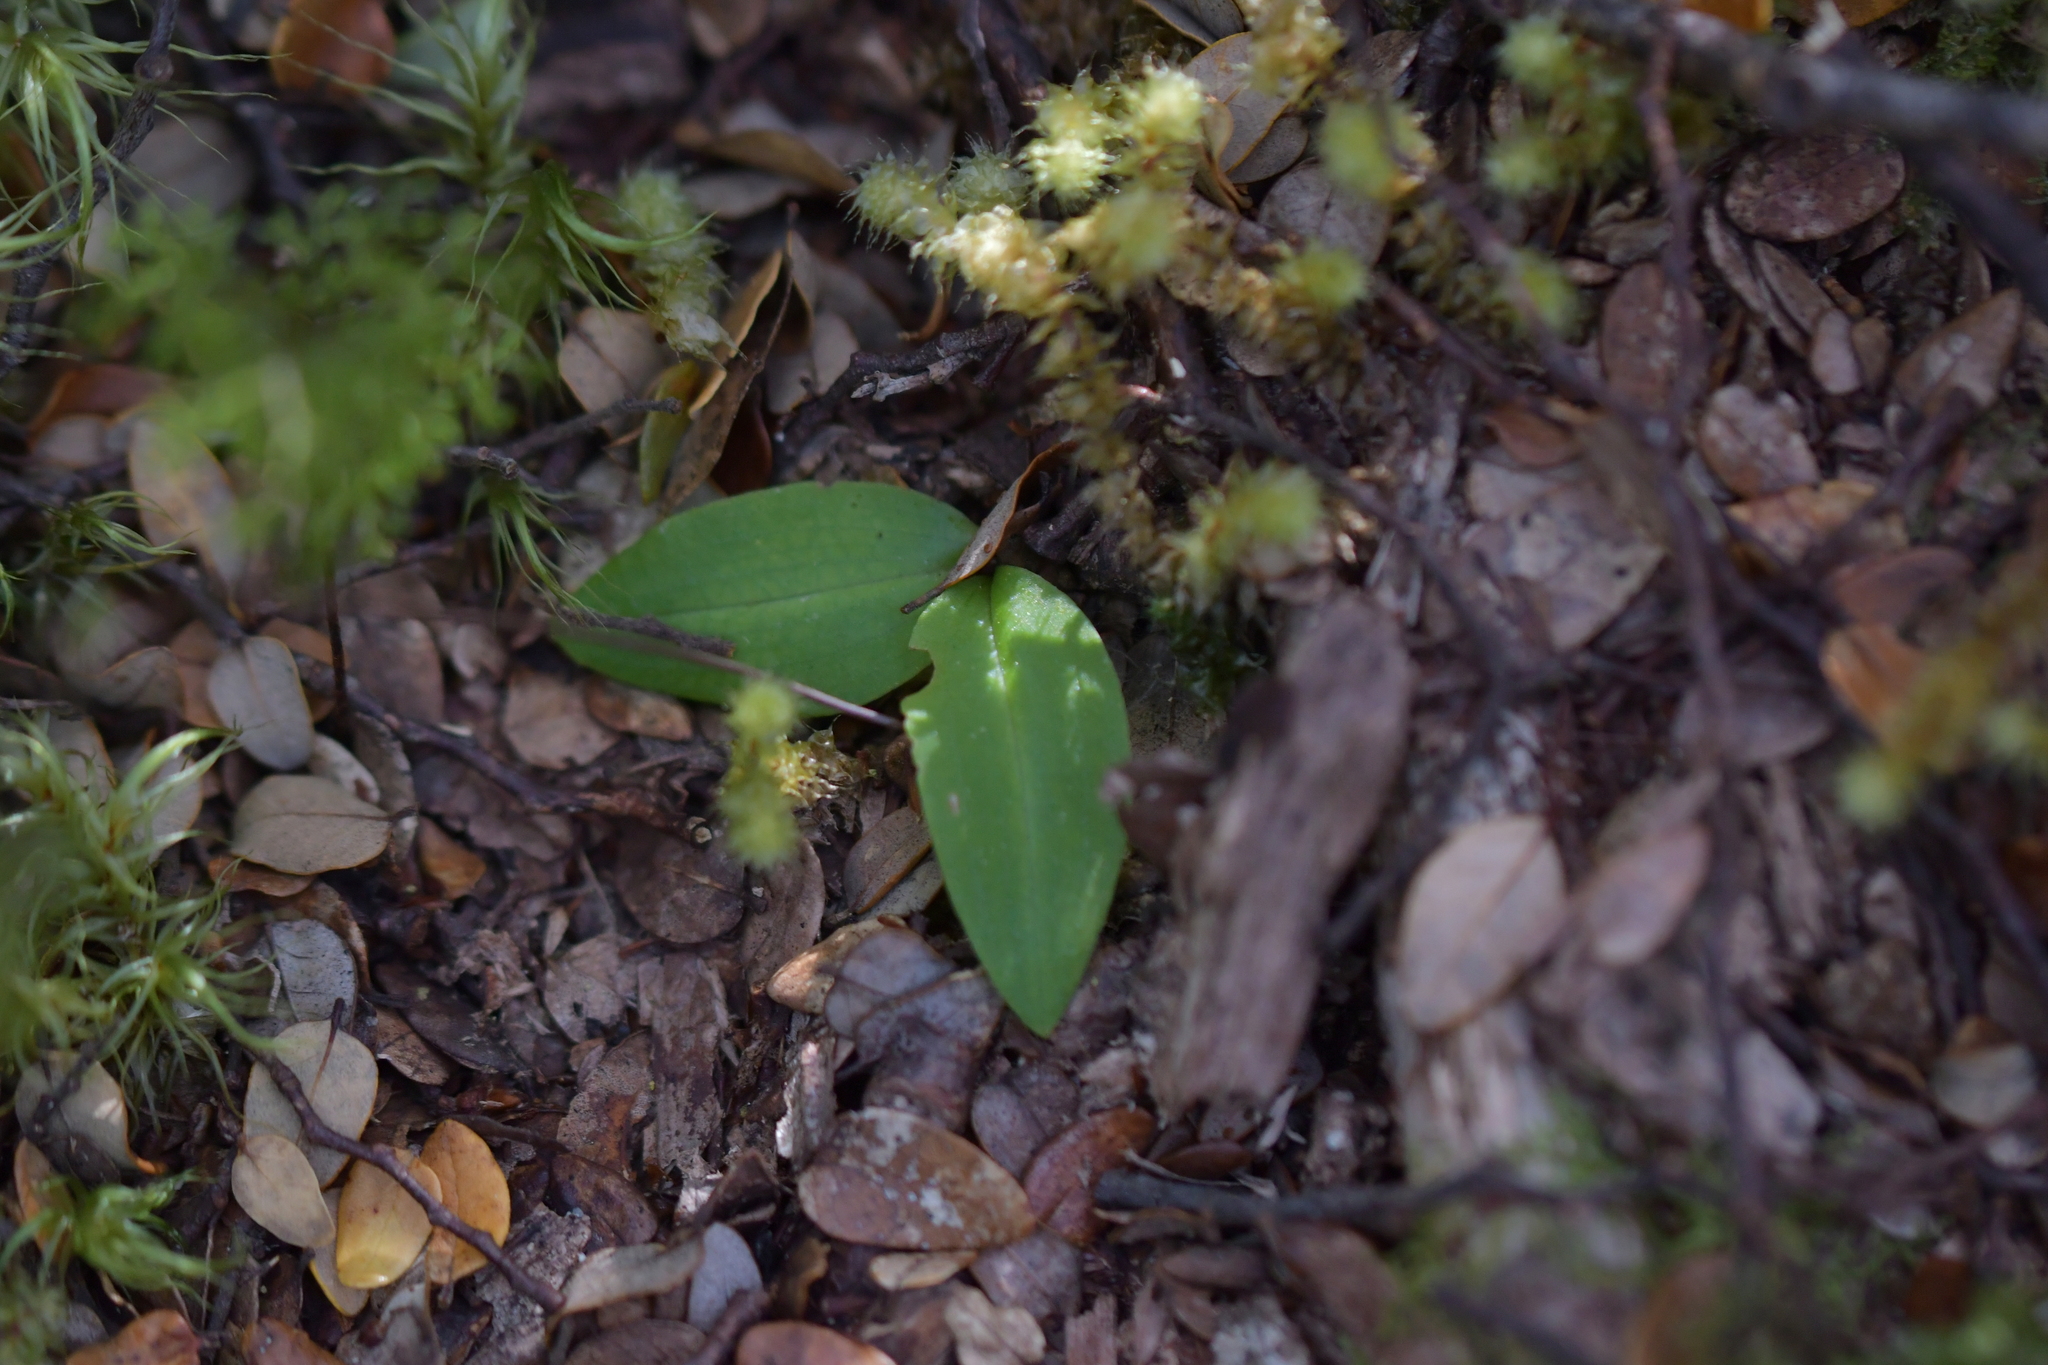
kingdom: Plantae
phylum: Tracheophyta
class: Liliopsida
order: Asparagales
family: Orchidaceae
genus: Chiloglottis
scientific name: Chiloglottis cornuta
